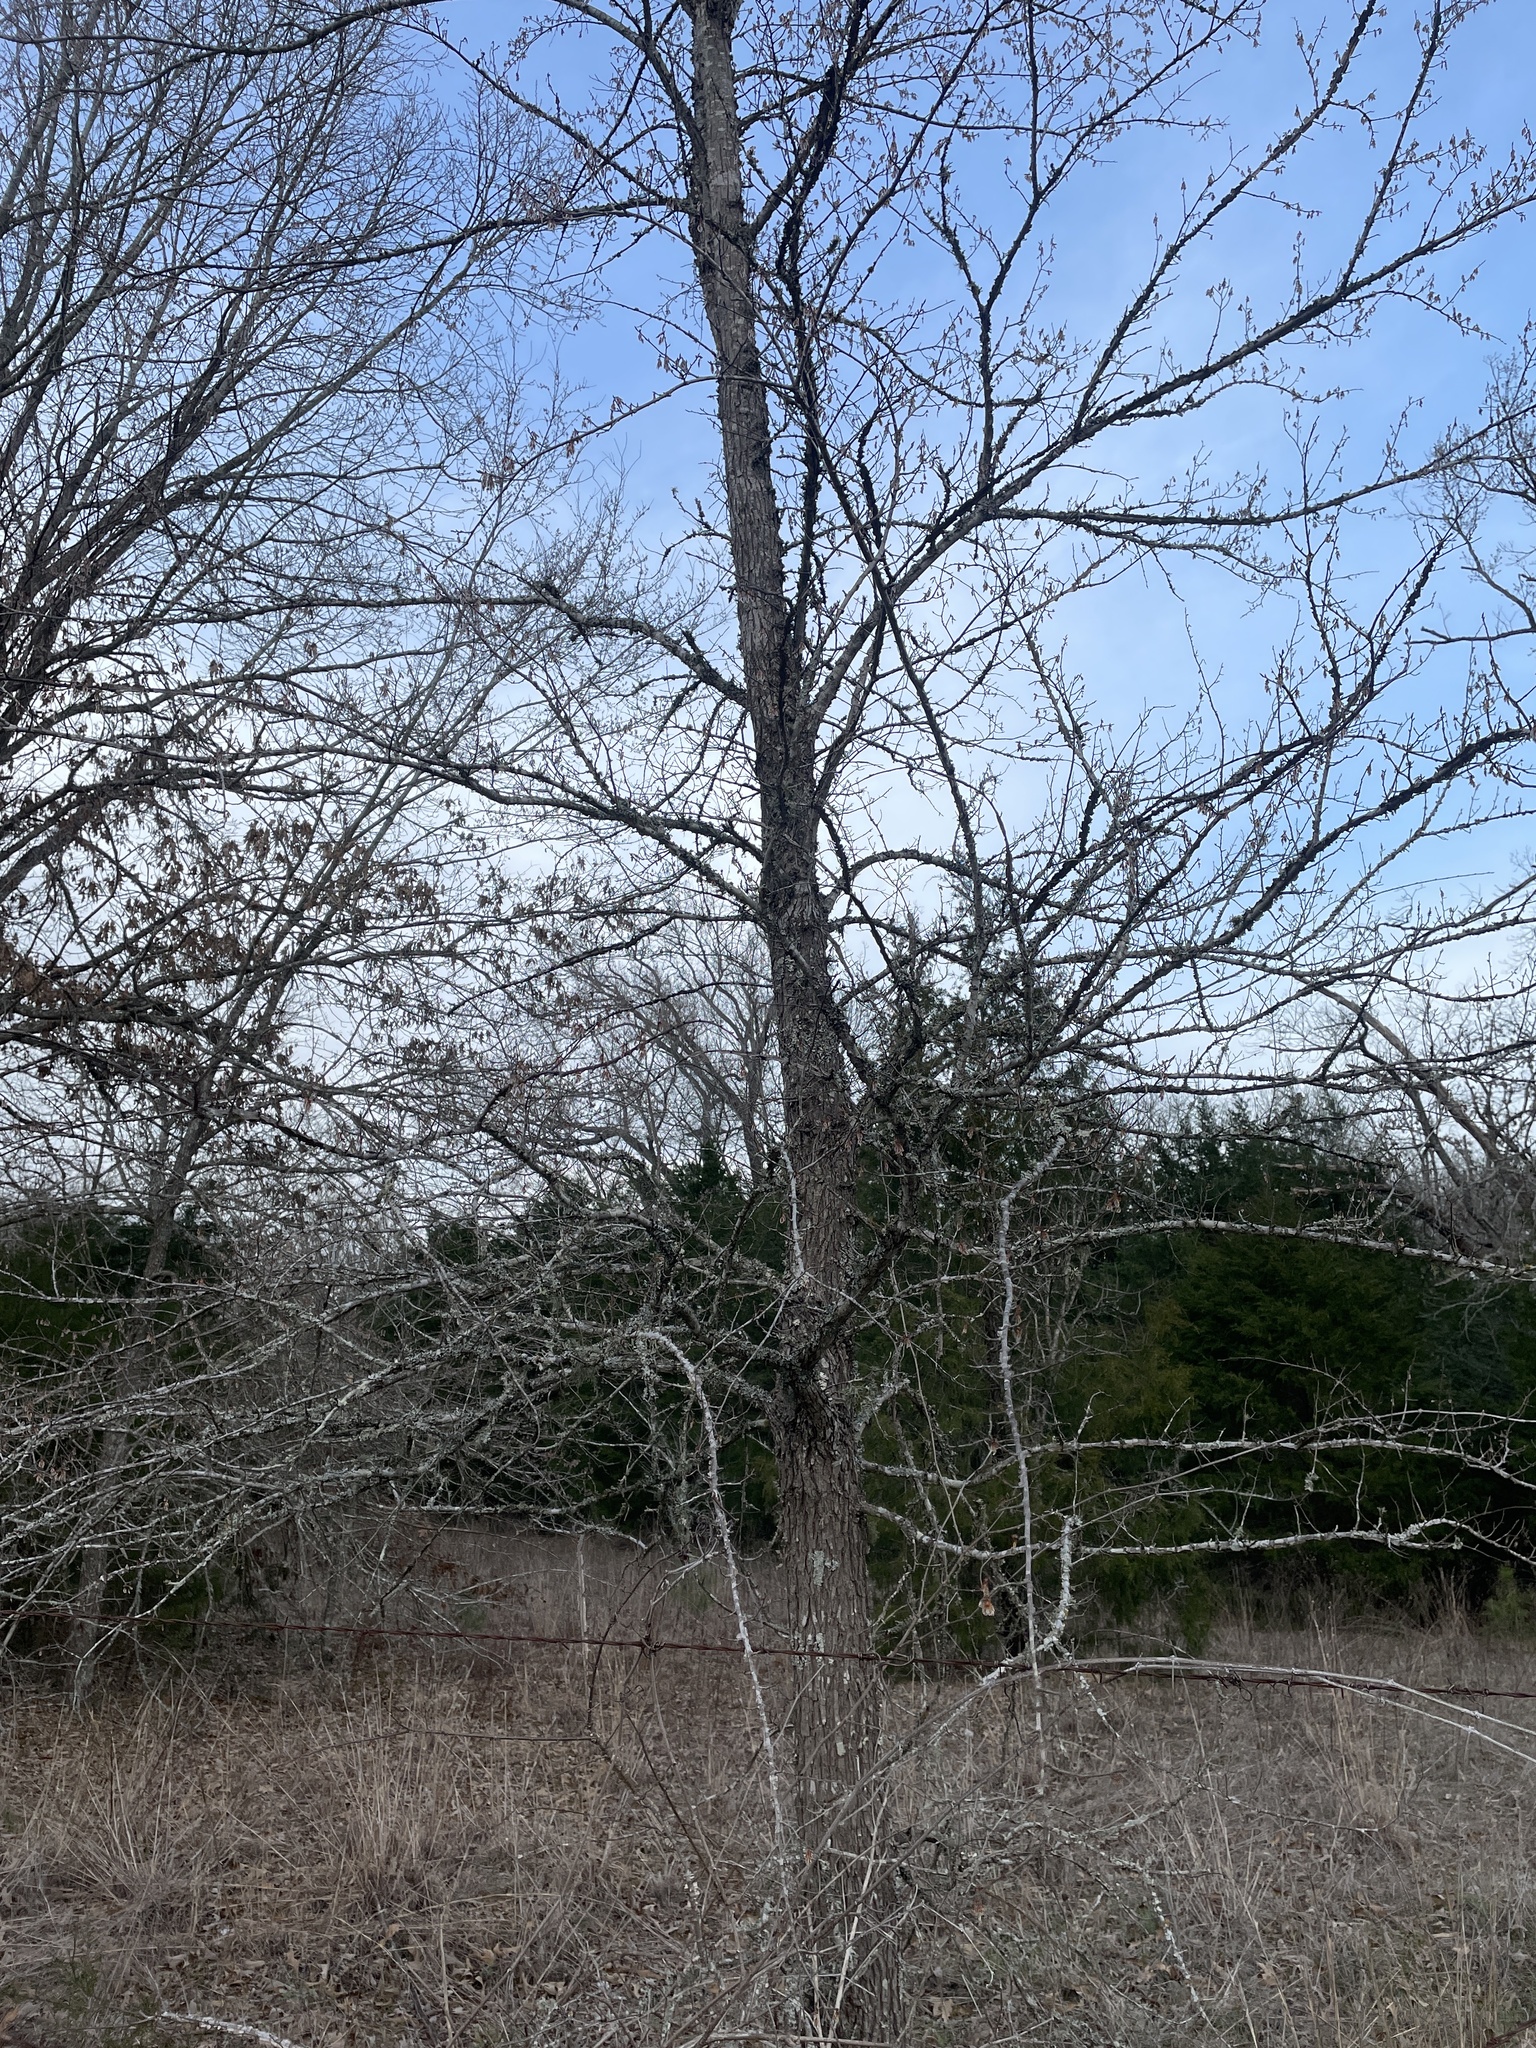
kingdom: Plantae
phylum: Tracheophyta
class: Magnoliopsida
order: Rosales
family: Ulmaceae
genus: Ulmus
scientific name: Ulmus alata
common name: Winged elm
